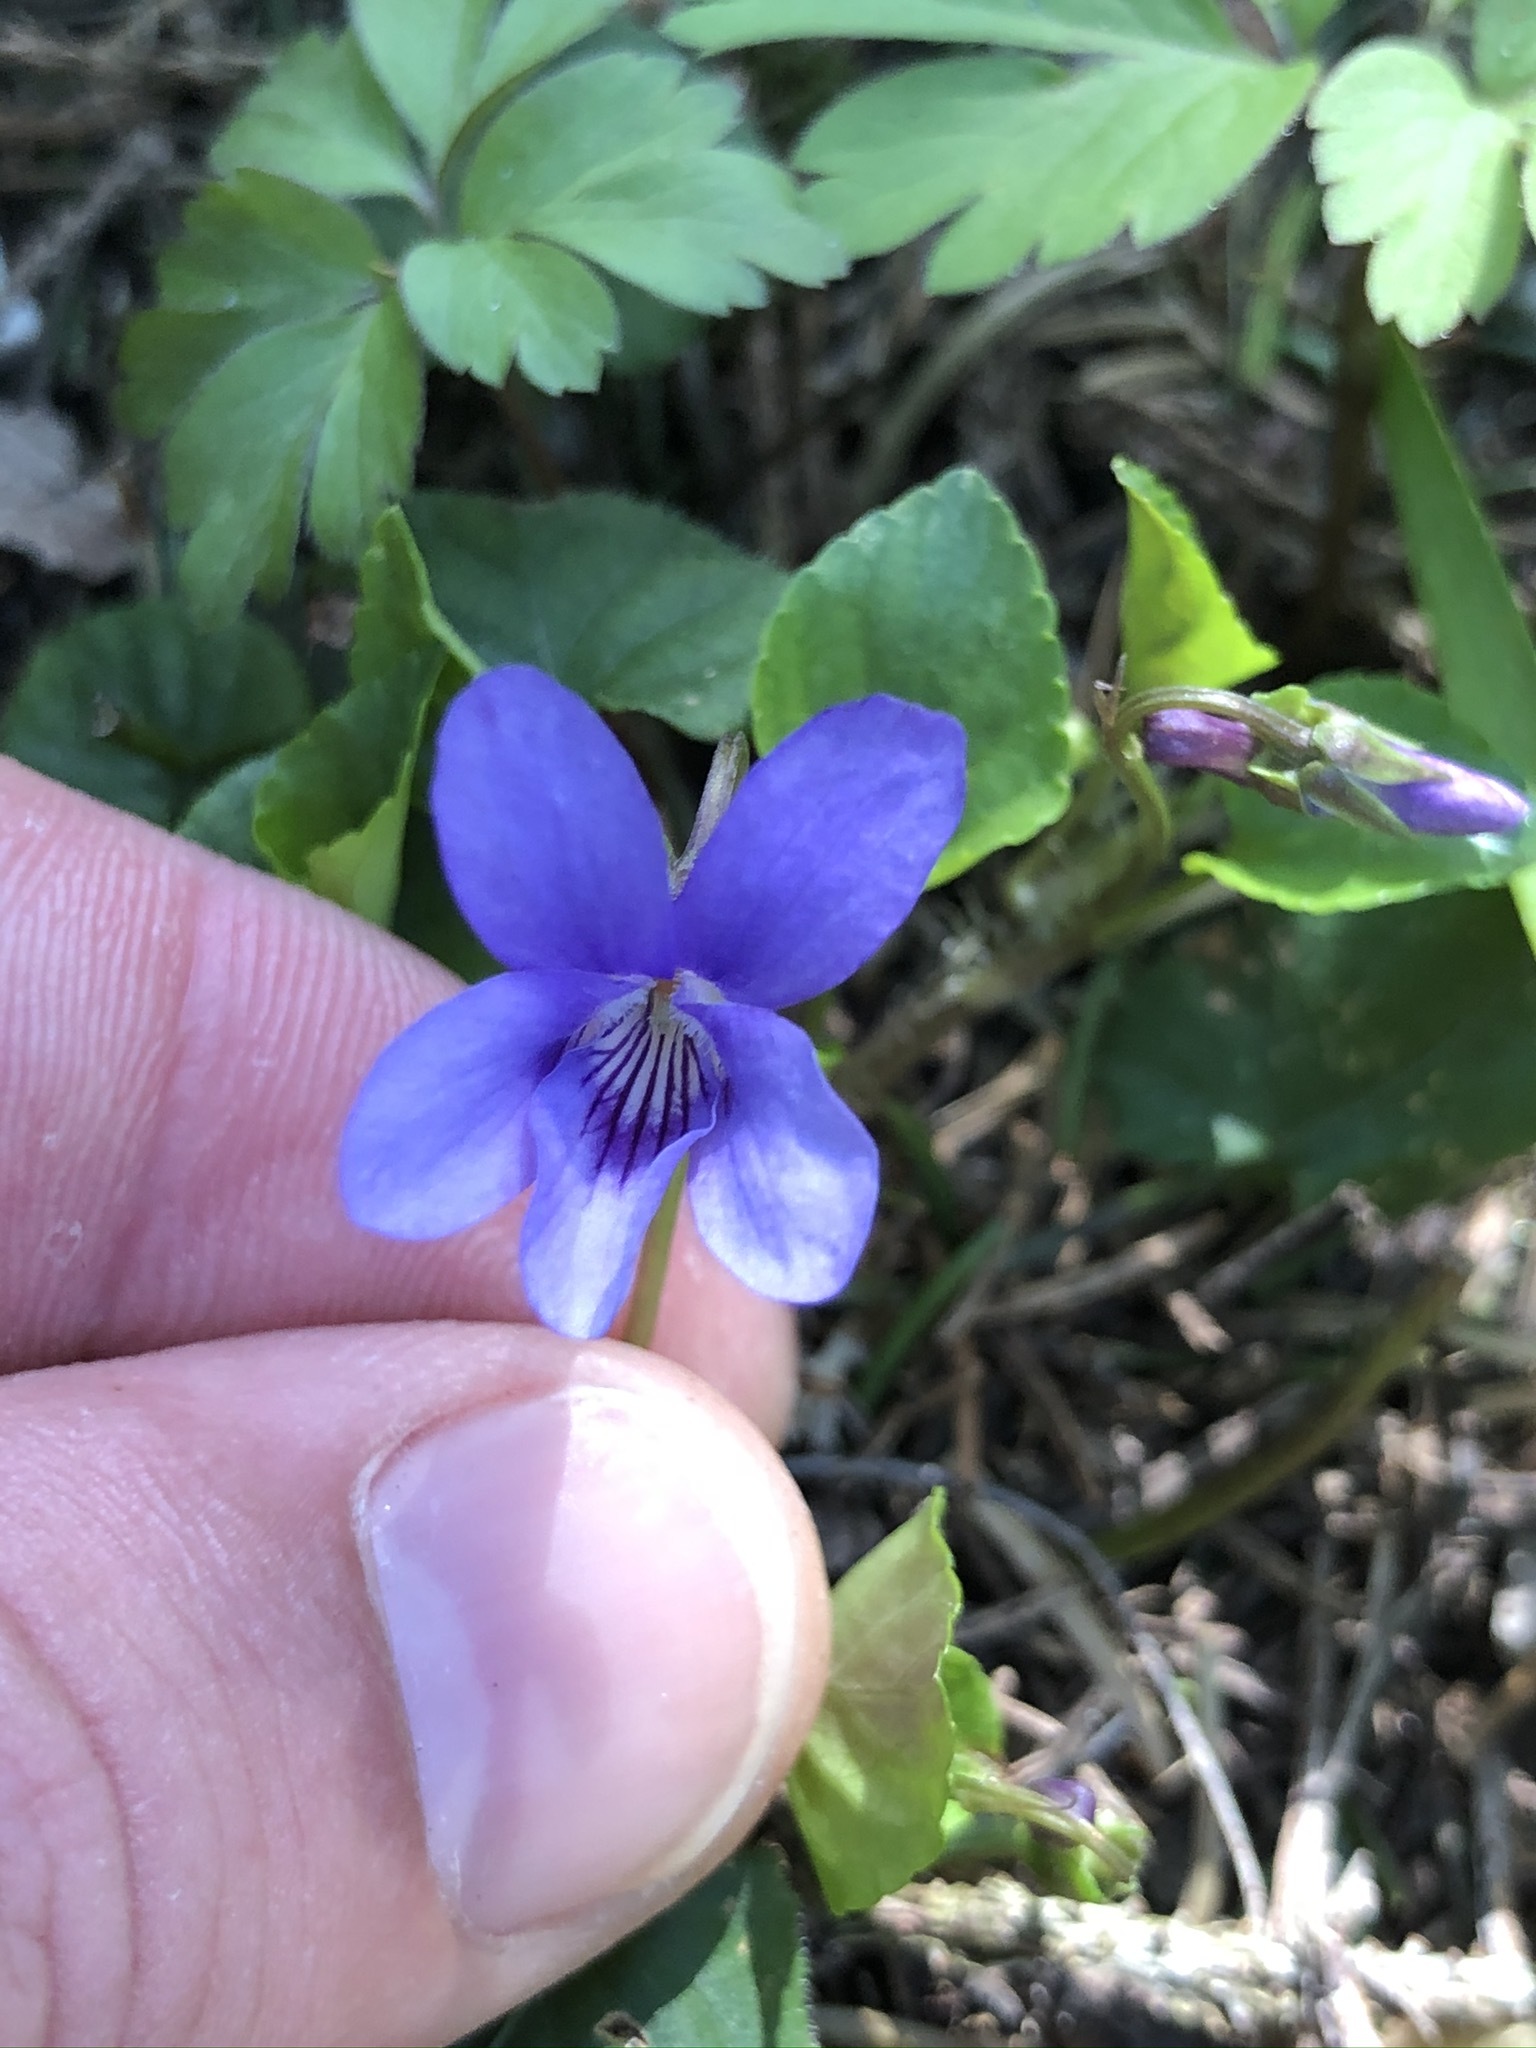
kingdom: Plantae
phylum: Tracheophyta
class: Magnoliopsida
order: Malpighiales
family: Violaceae
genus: Viola
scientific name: Viola reichenbachiana
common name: Early dog-violet
